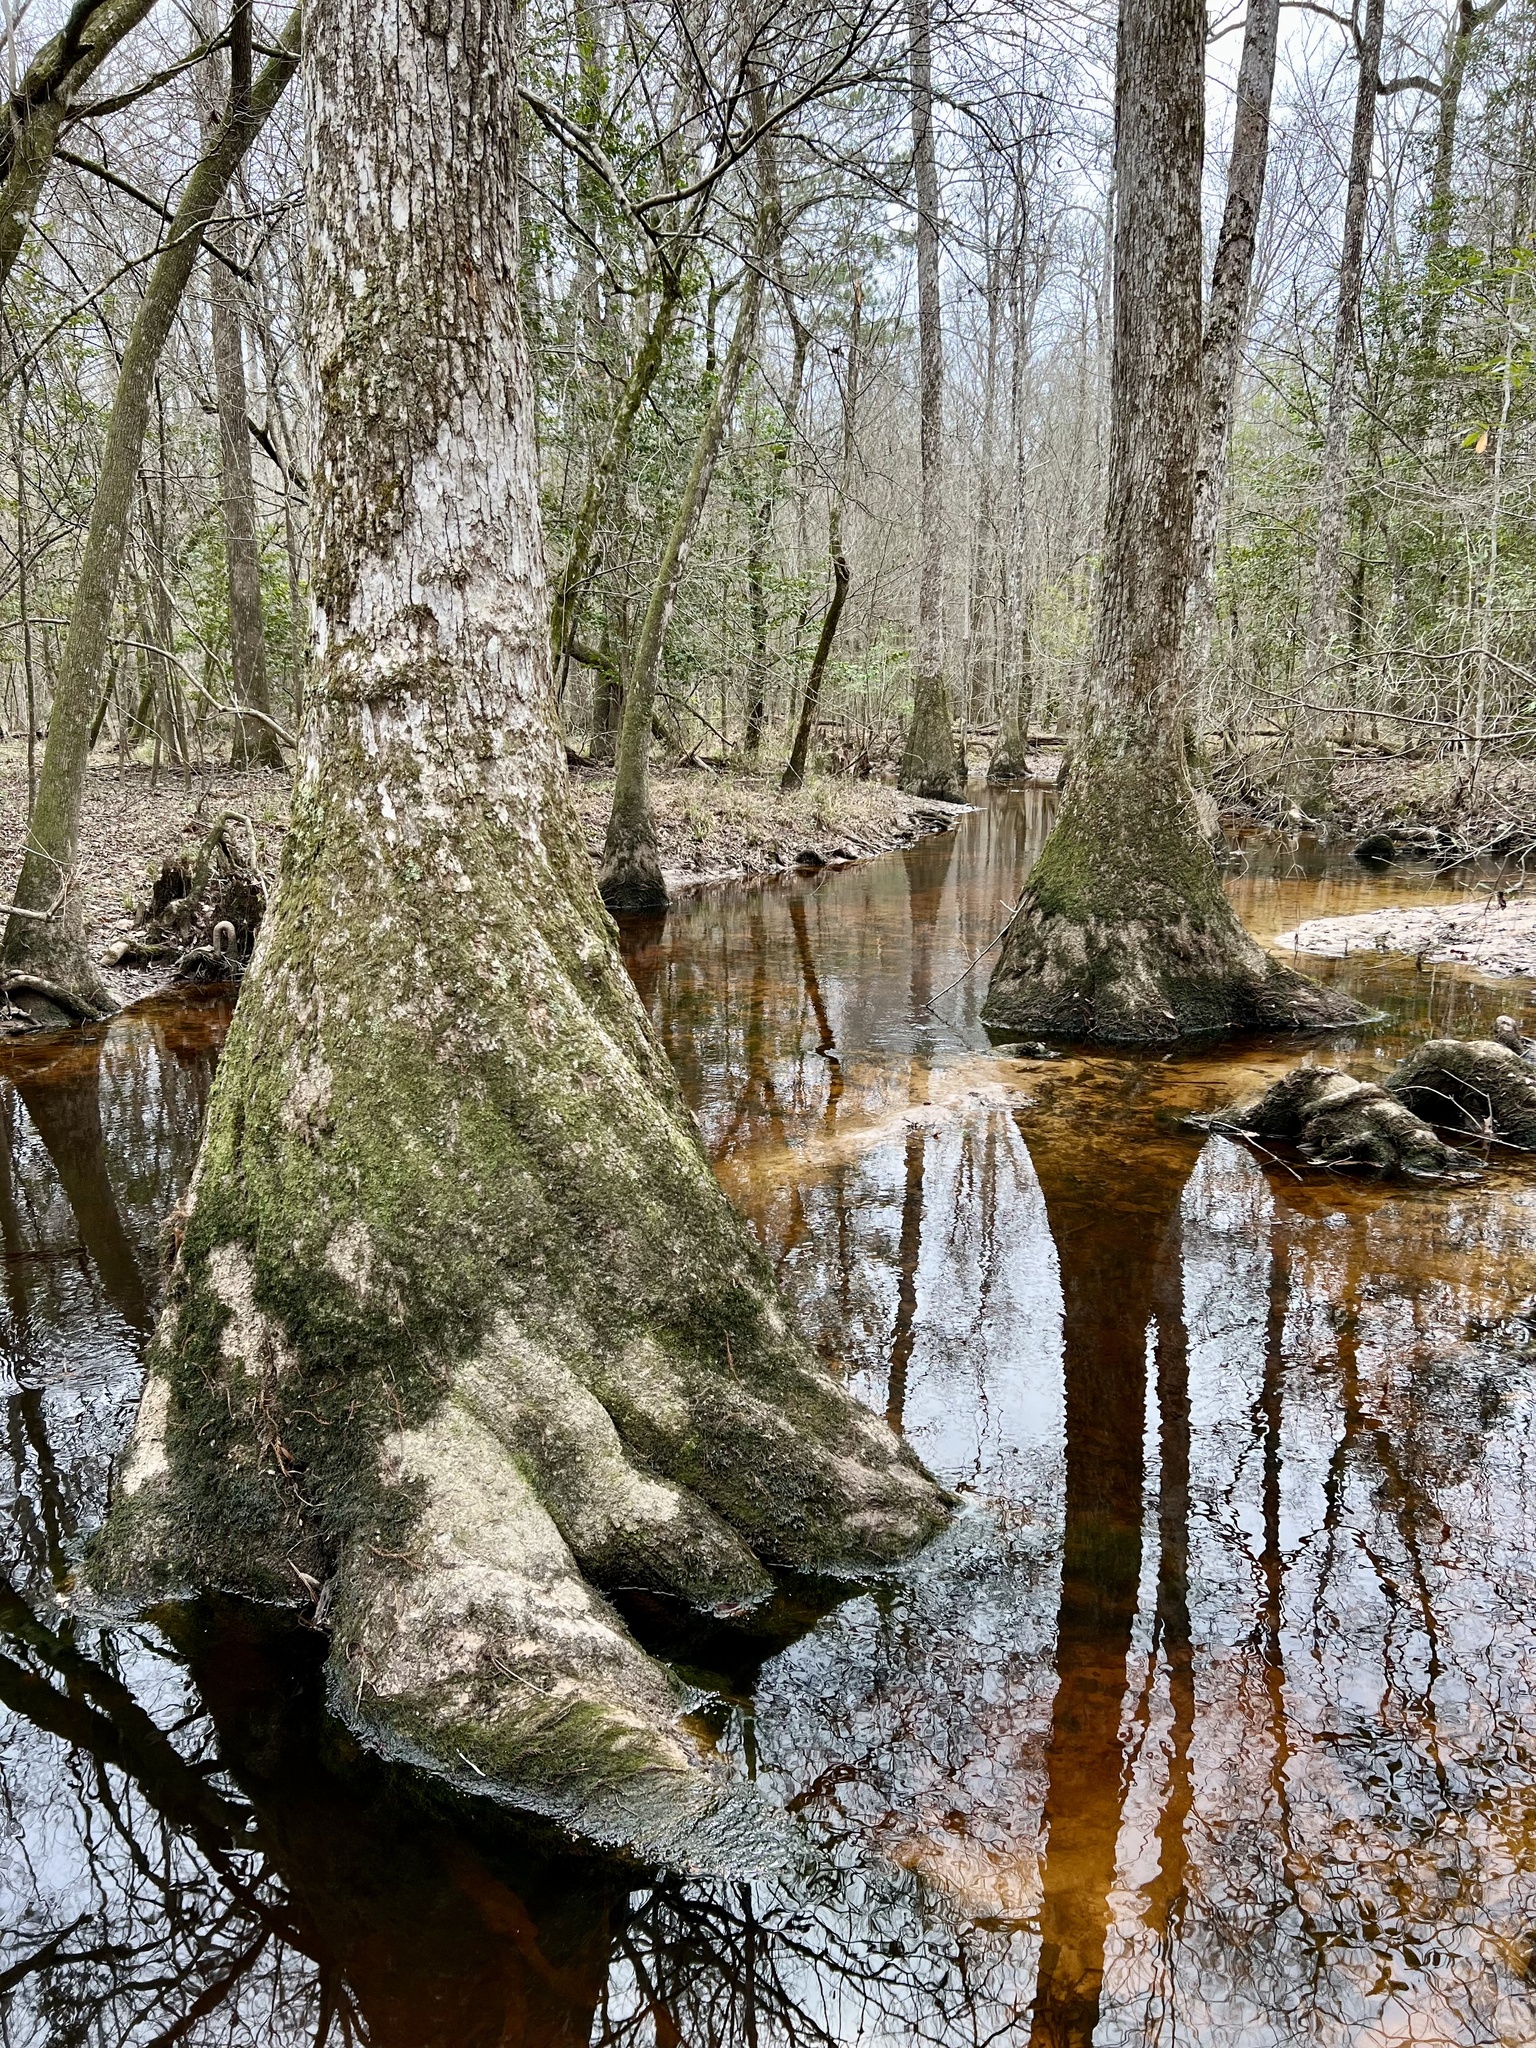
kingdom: Plantae
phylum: Tracheophyta
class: Magnoliopsida
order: Cornales
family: Nyssaceae
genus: Nyssa
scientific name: Nyssa aquatica
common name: Swamp tupelo
